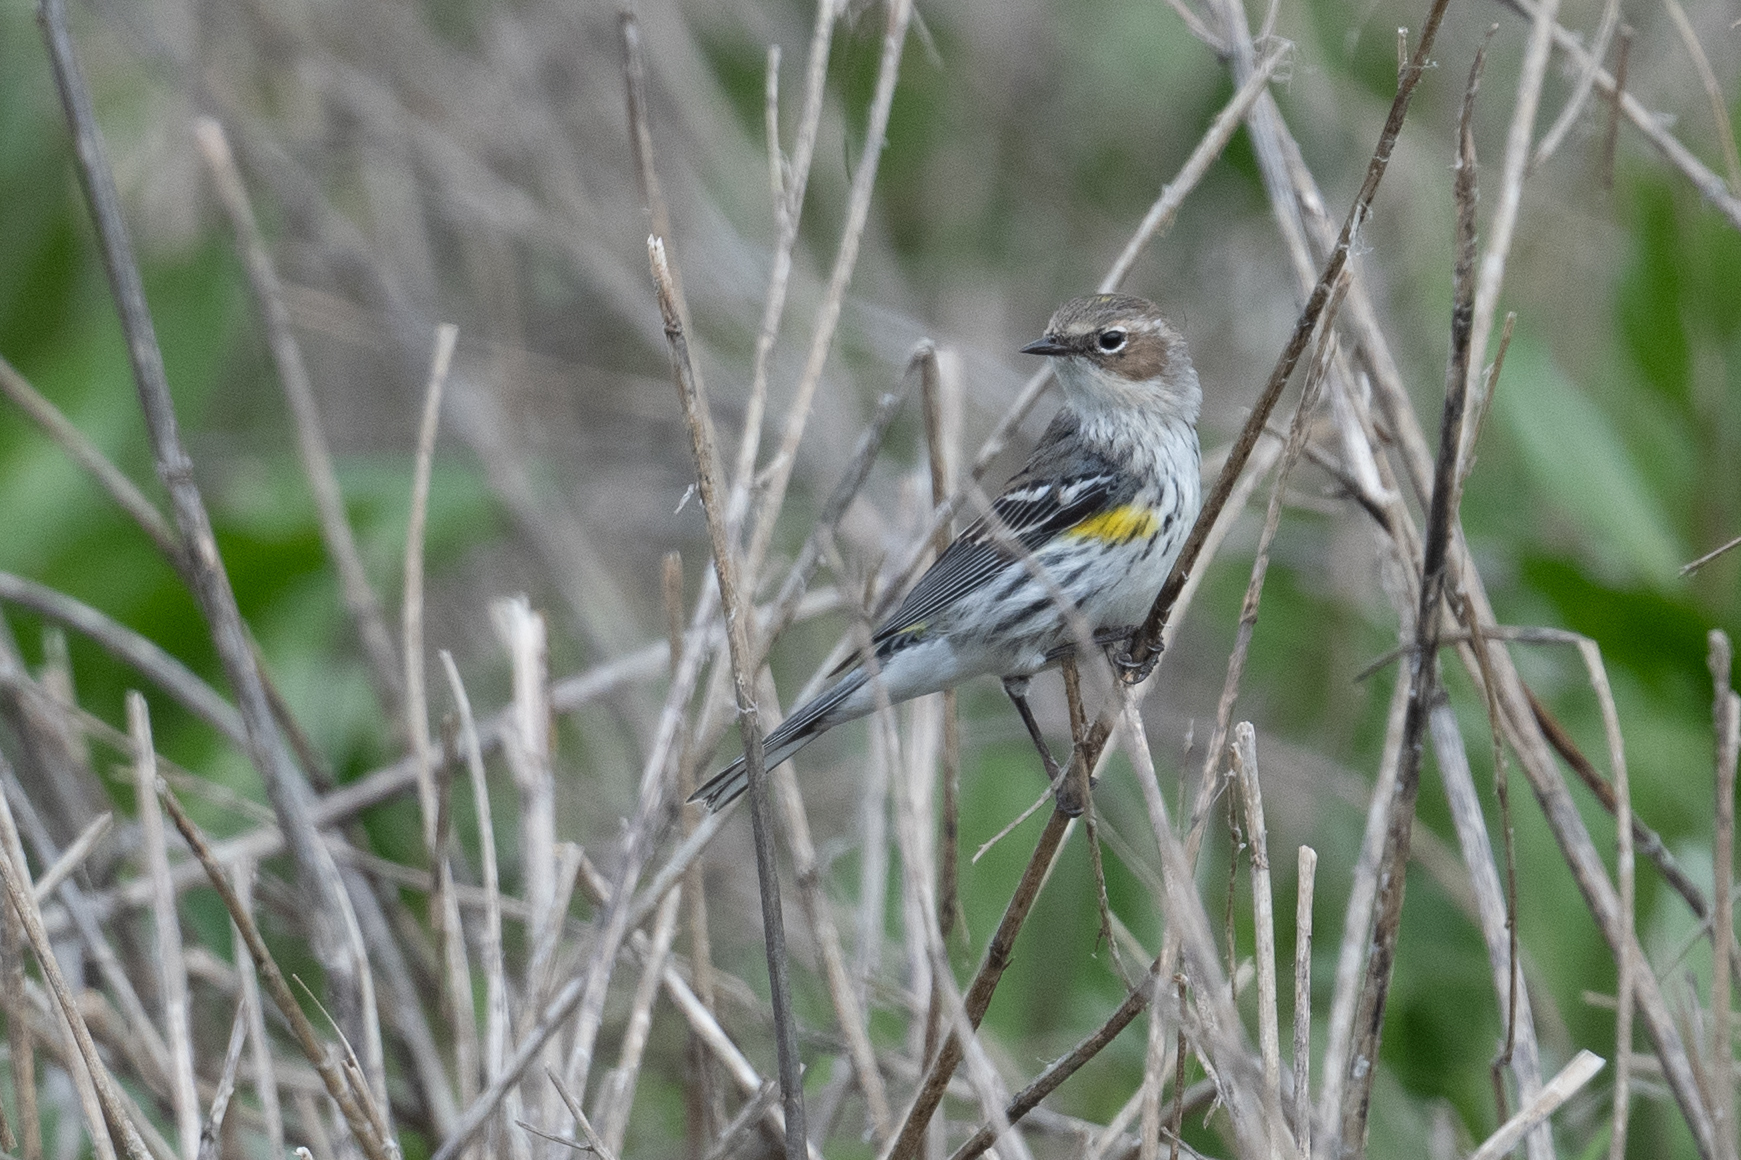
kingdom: Animalia
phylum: Chordata
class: Aves
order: Passeriformes
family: Parulidae
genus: Setophaga
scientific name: Setophaga coronata
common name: Myrtle warbler
